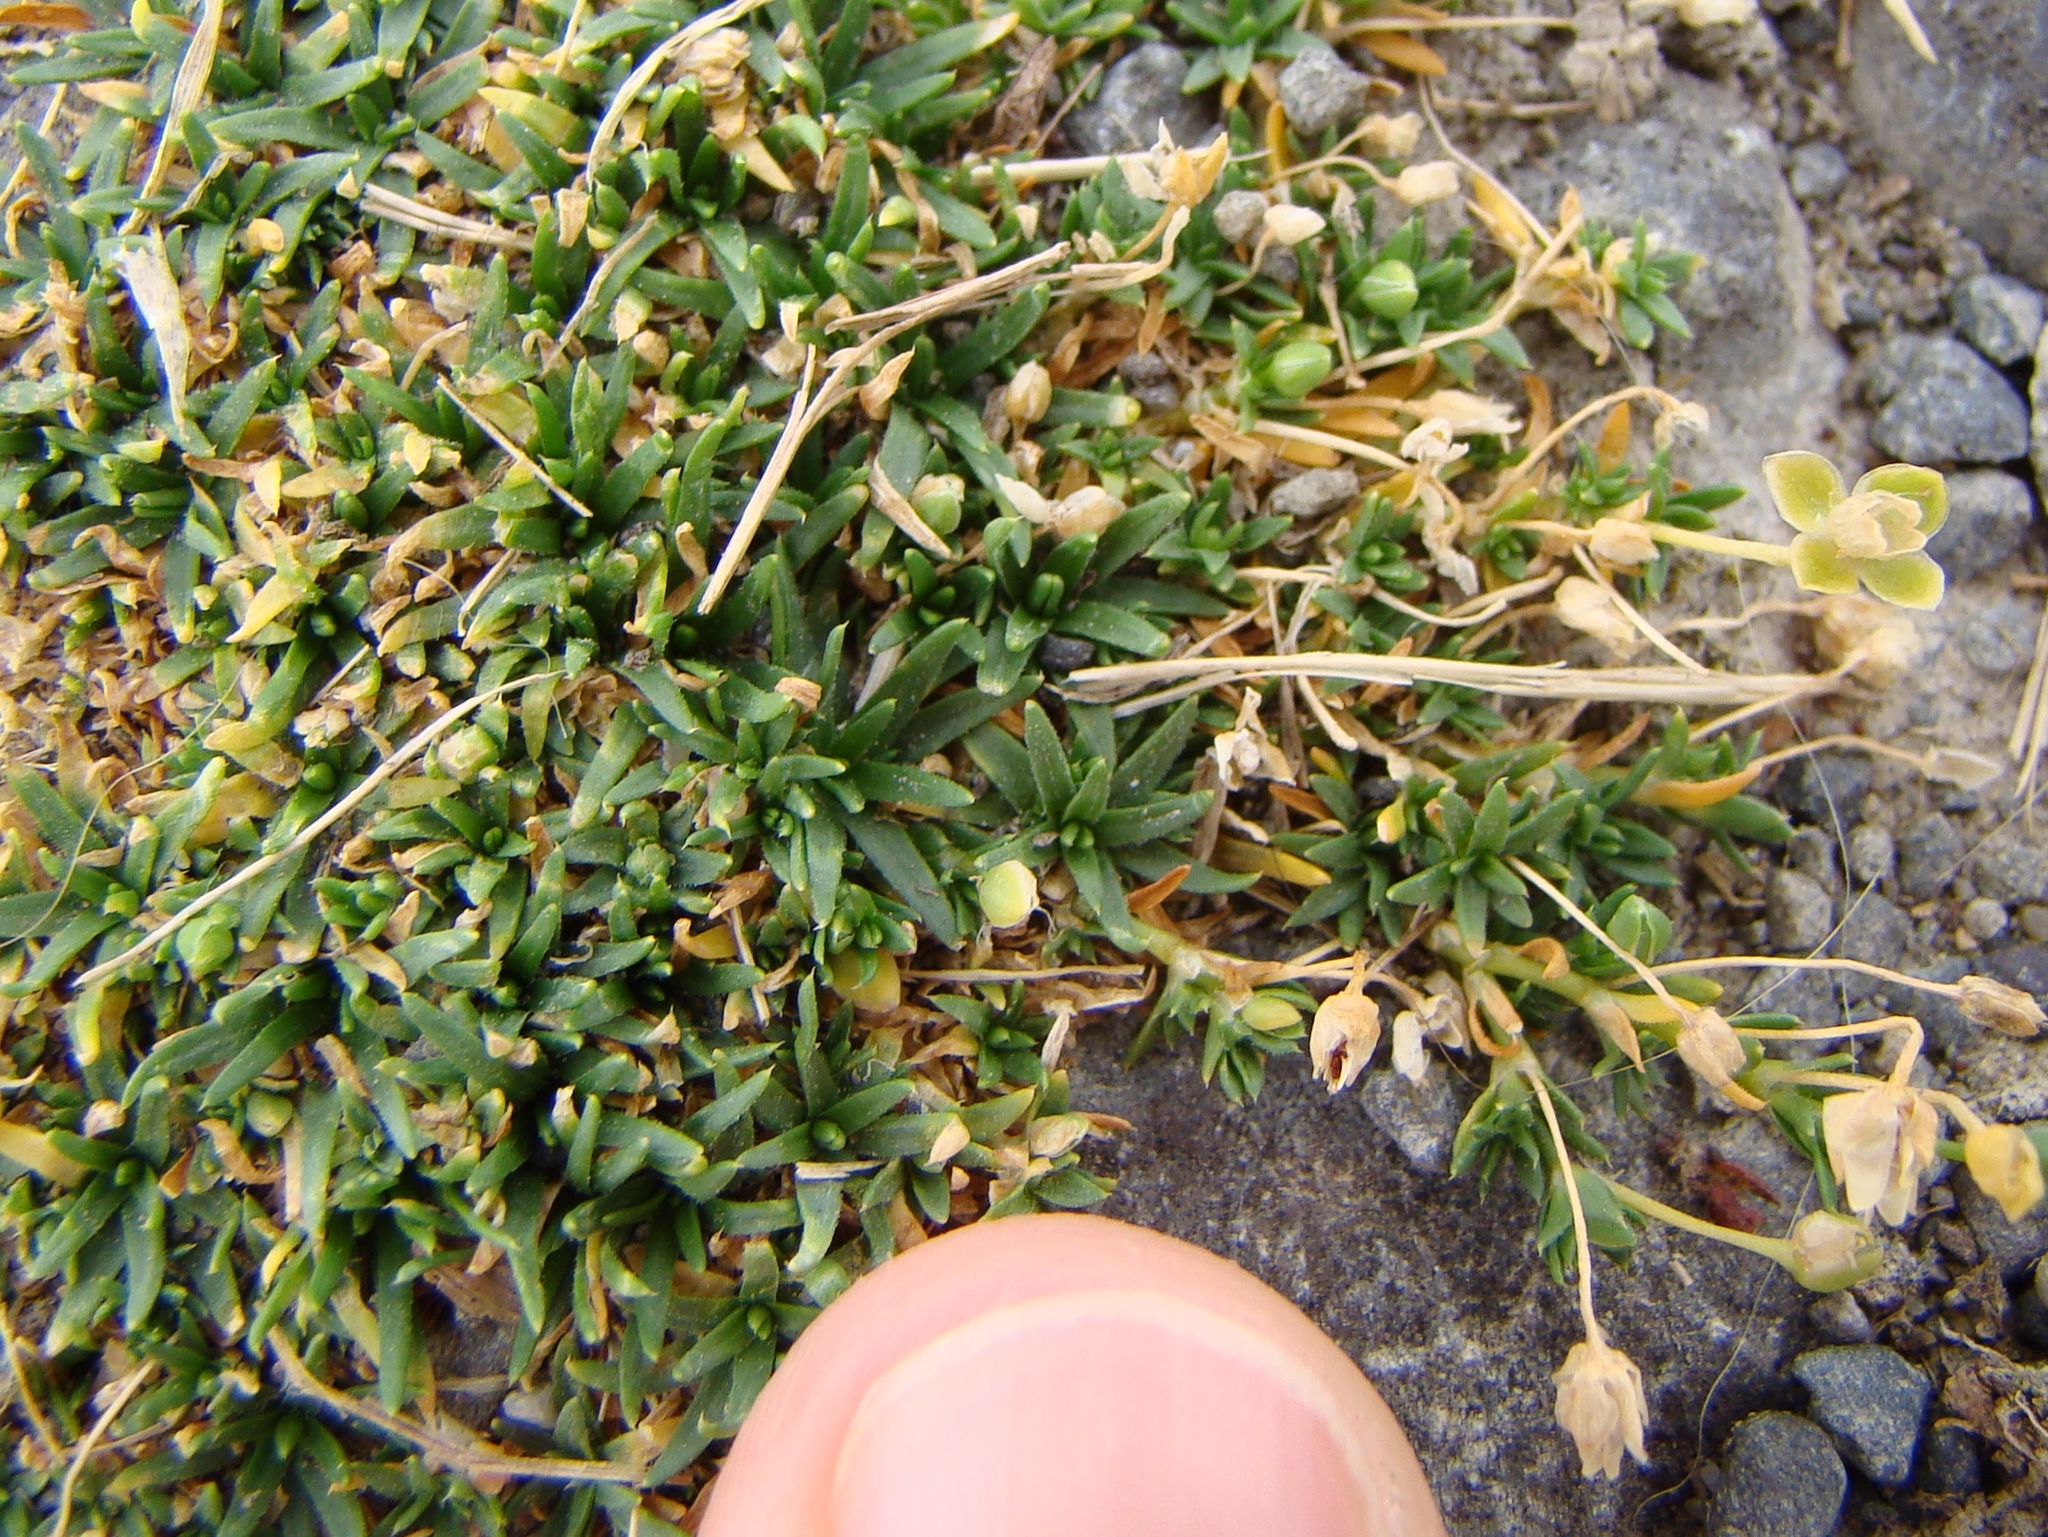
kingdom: Plantae
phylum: Tracheophyta
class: Magnoliopsida
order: Caryophyllales
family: Caryophyllaceae
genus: Sagina
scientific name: Sagina procumbens
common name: Procumbent pearlwort
